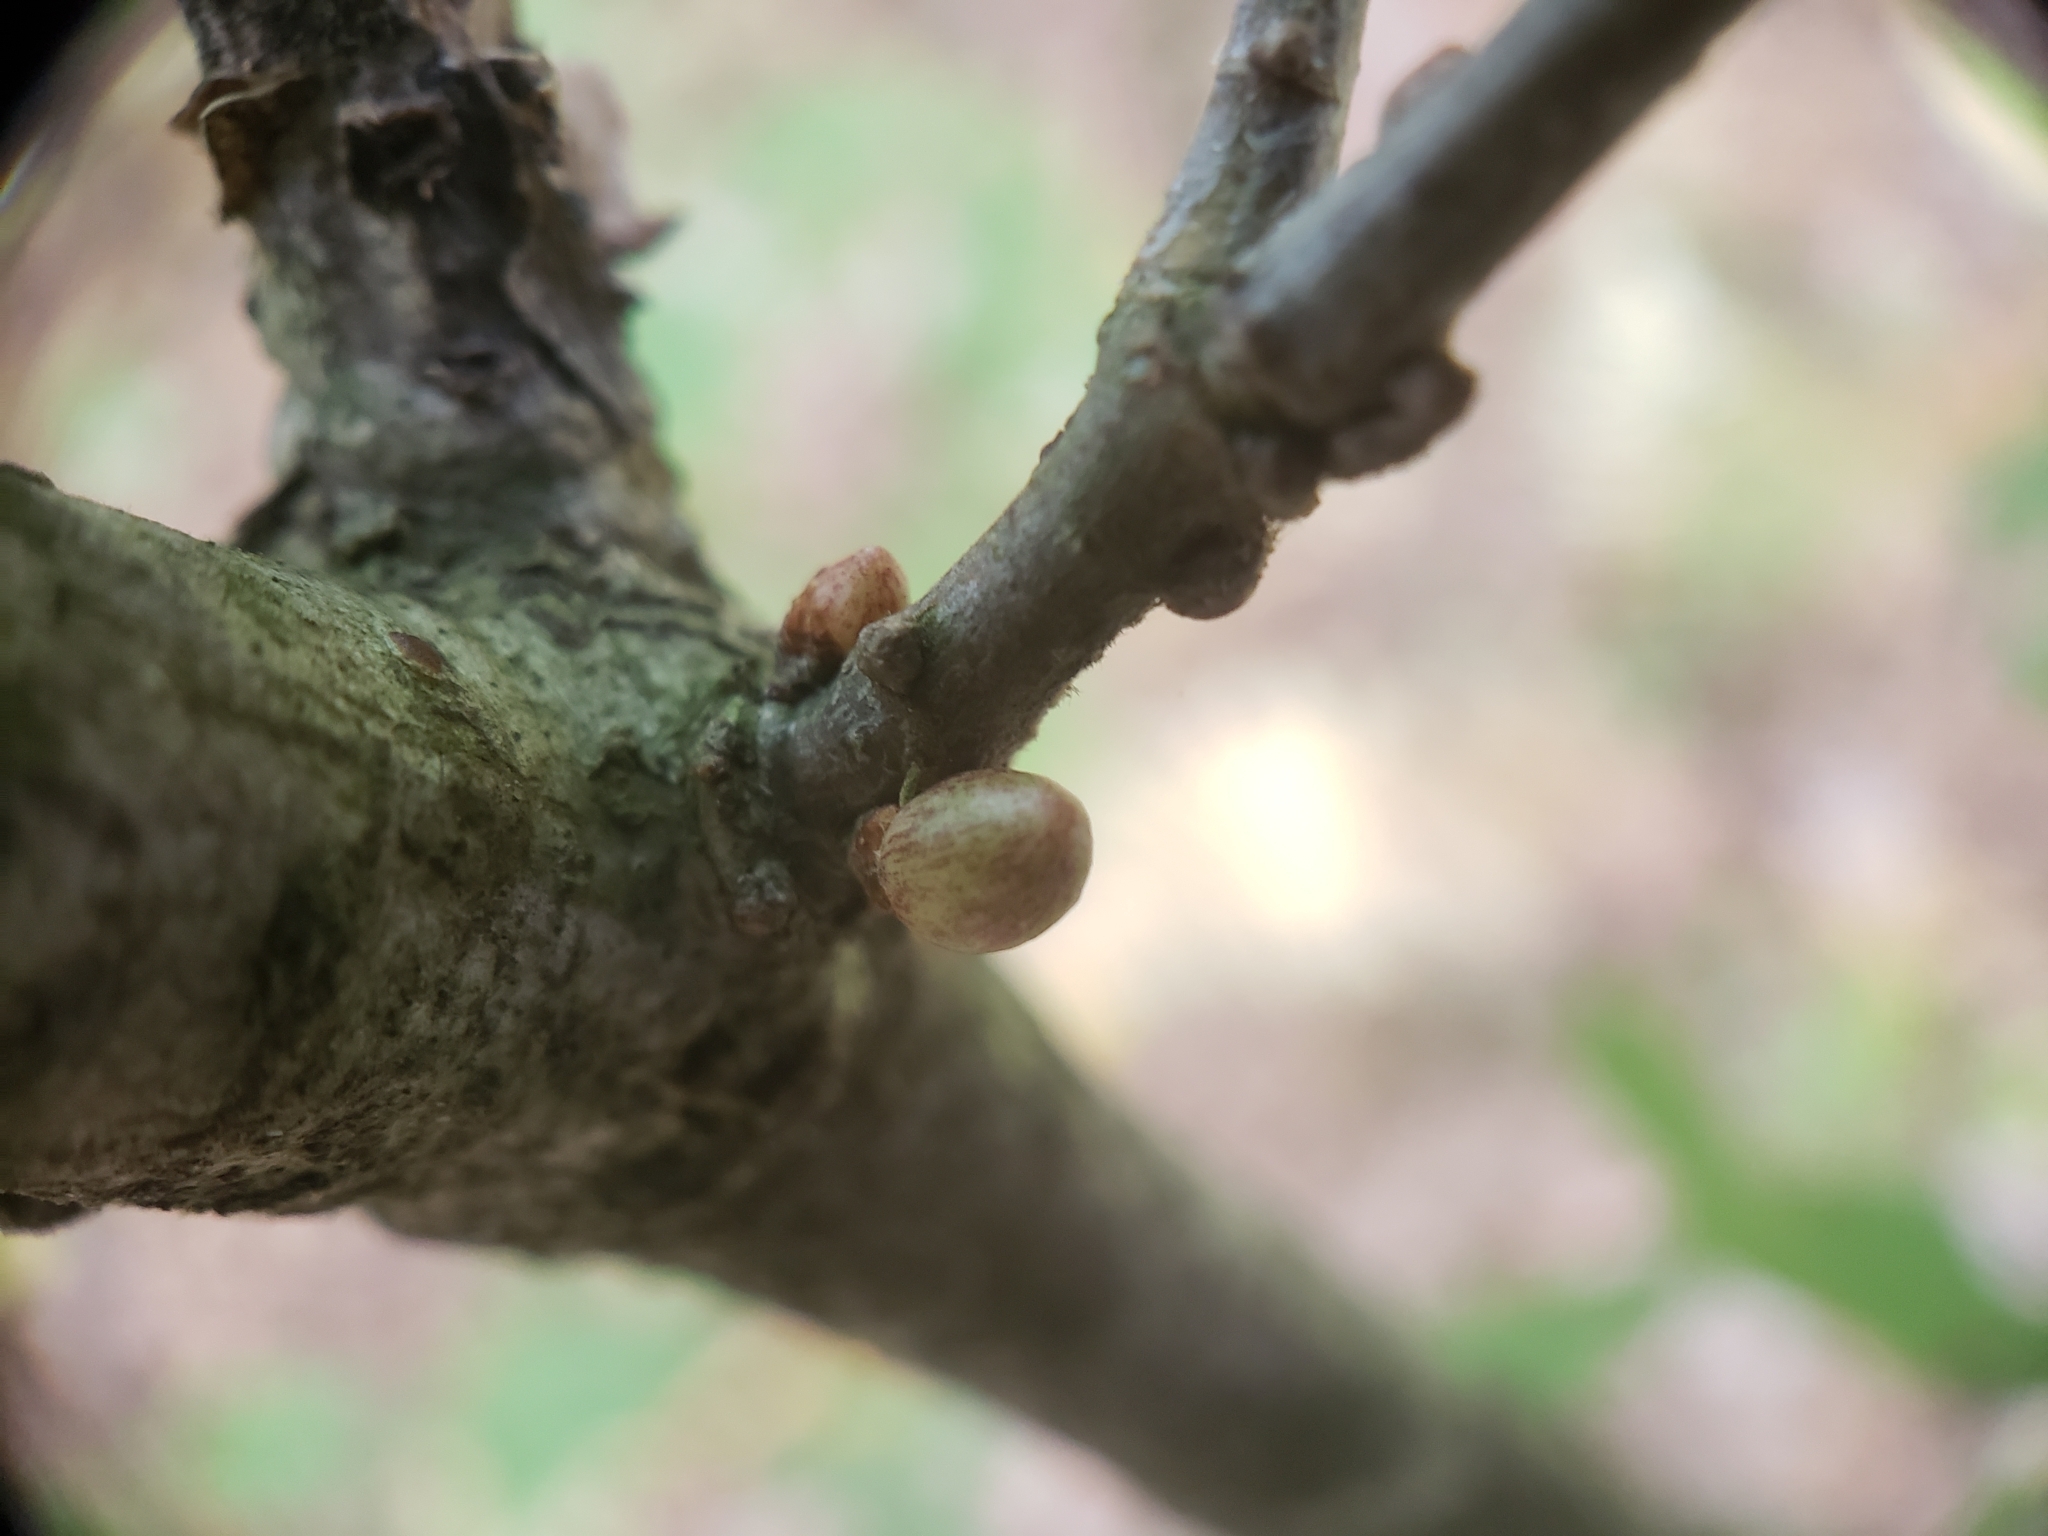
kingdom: Animalia
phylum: Arthropoda
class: Insecta
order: Hymenoptera
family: Cynipidae
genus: Andricus
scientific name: Andricus
